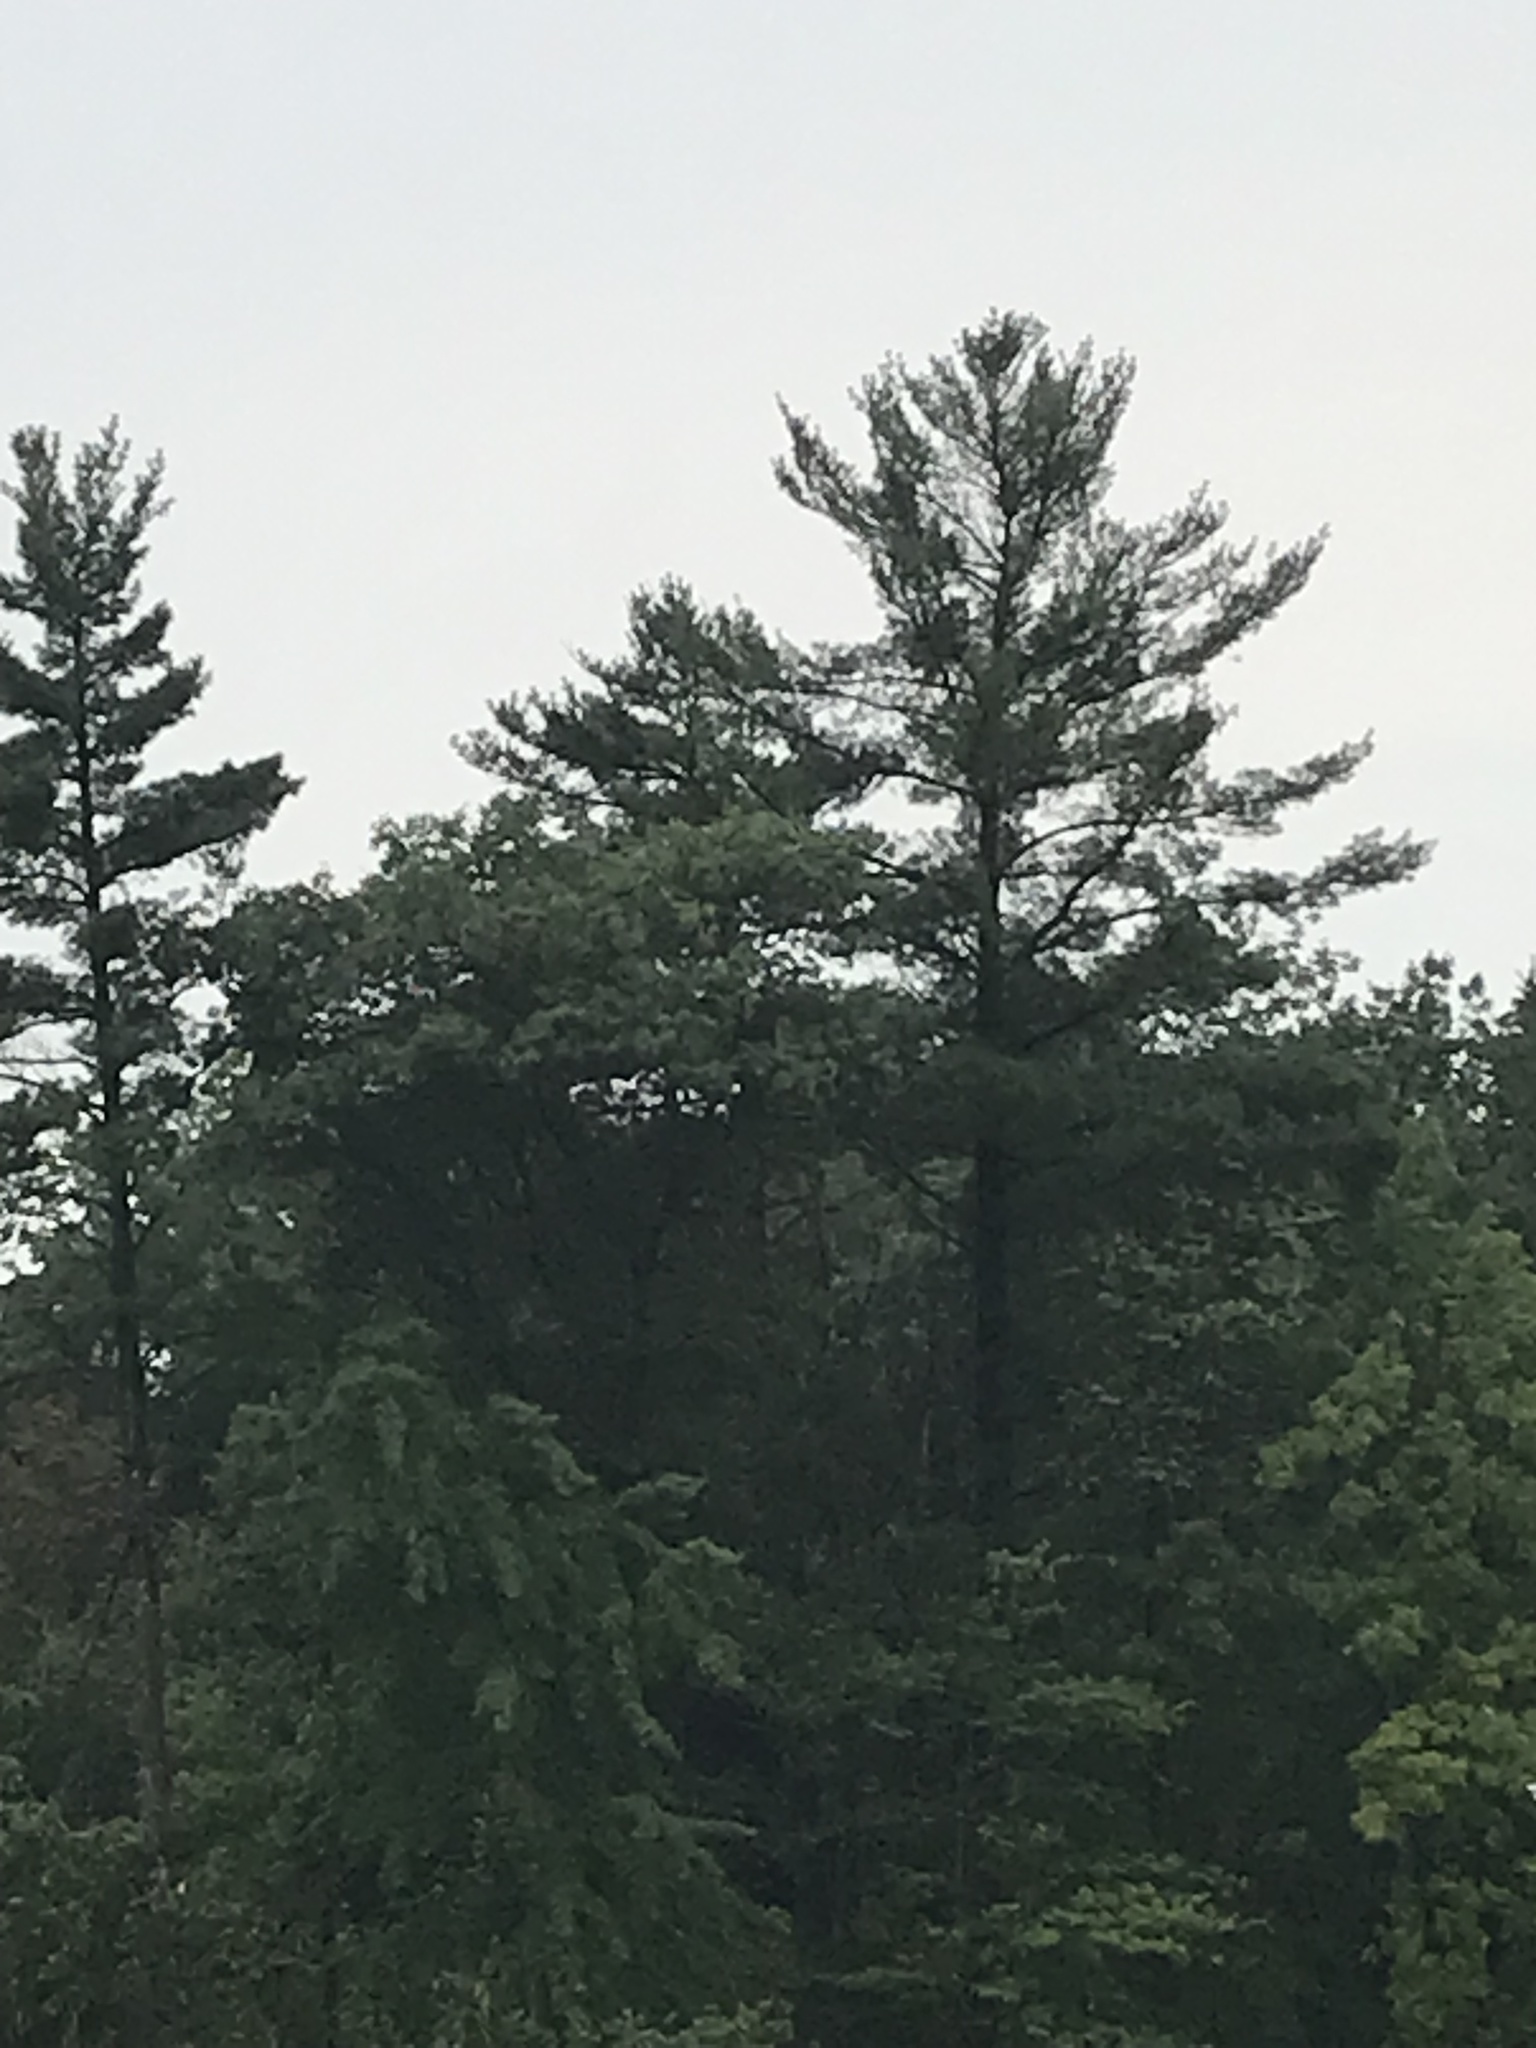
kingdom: Plantae
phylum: Tracheophyta
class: Pinopsida
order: Pinales
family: Pinaceae
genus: Pinus
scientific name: Pinus strobus
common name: Weymouth pine
